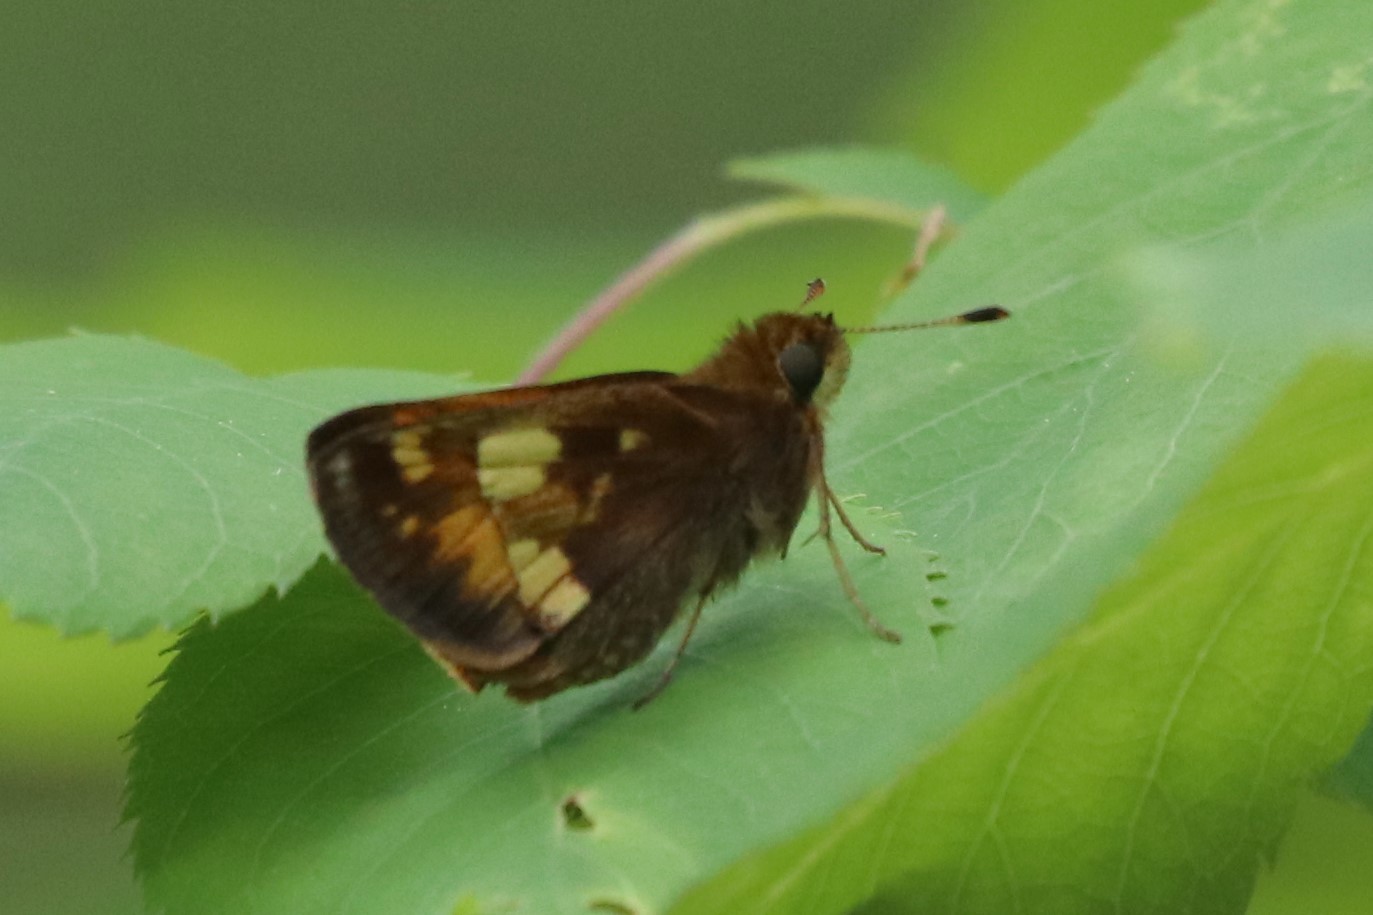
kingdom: Animalia
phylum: Arthropoda
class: Insecta
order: Lepidoptera
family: Hesperiidae
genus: Lon
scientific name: Lon hobomok
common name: Hobomok skipper
